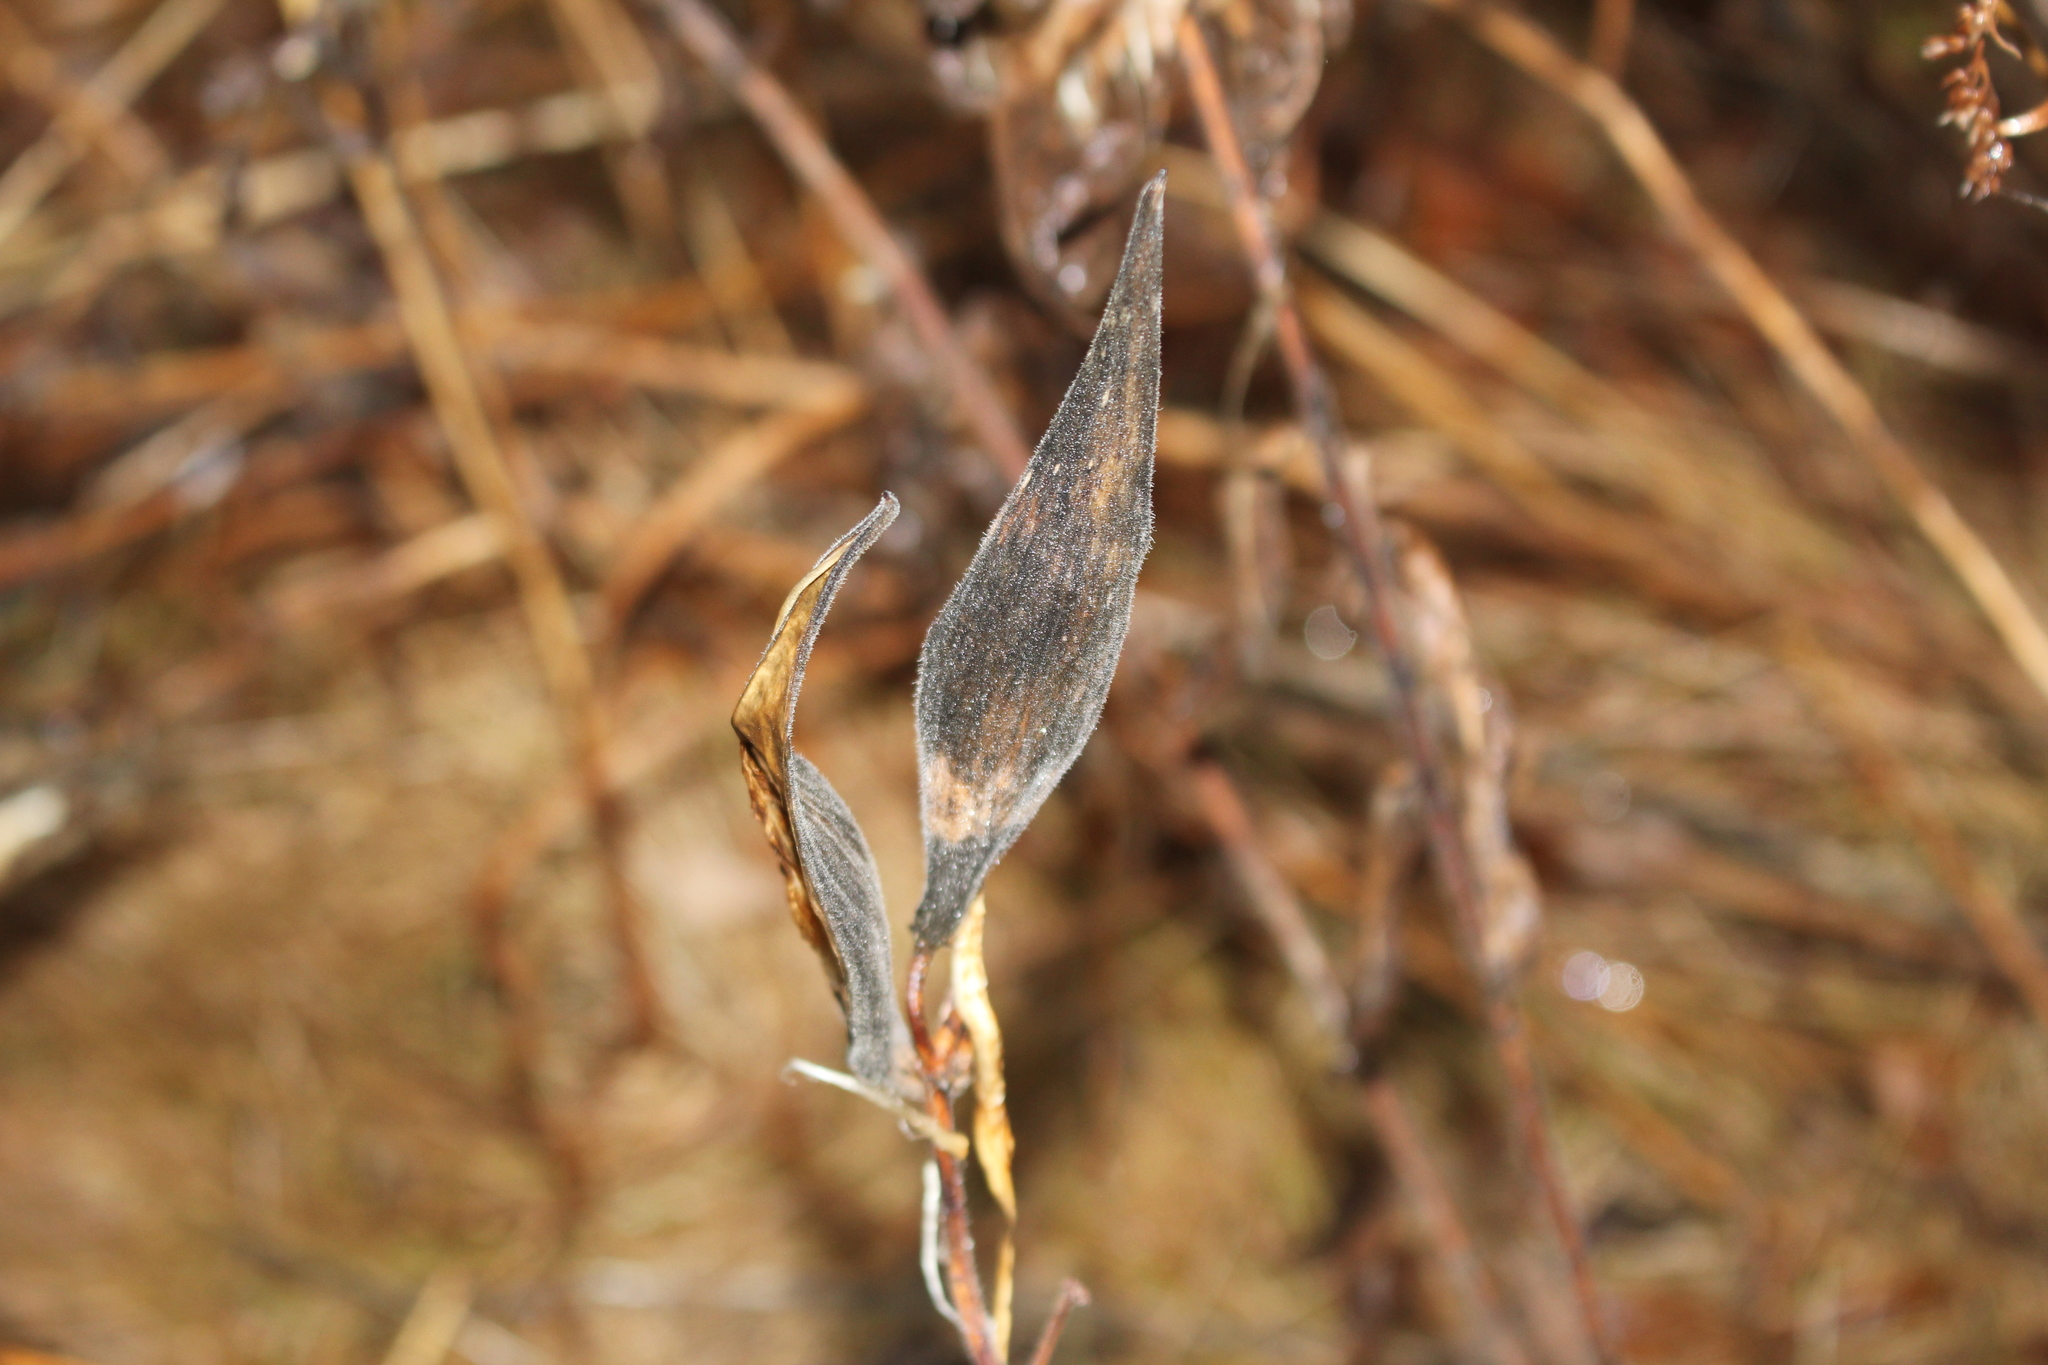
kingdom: Plantae
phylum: Tracheophyta
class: Magnoliopsida
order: Gentianales
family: Apocynaceae
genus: Asclepias
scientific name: Asclepias tuberosa
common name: Butterfly milkweed
